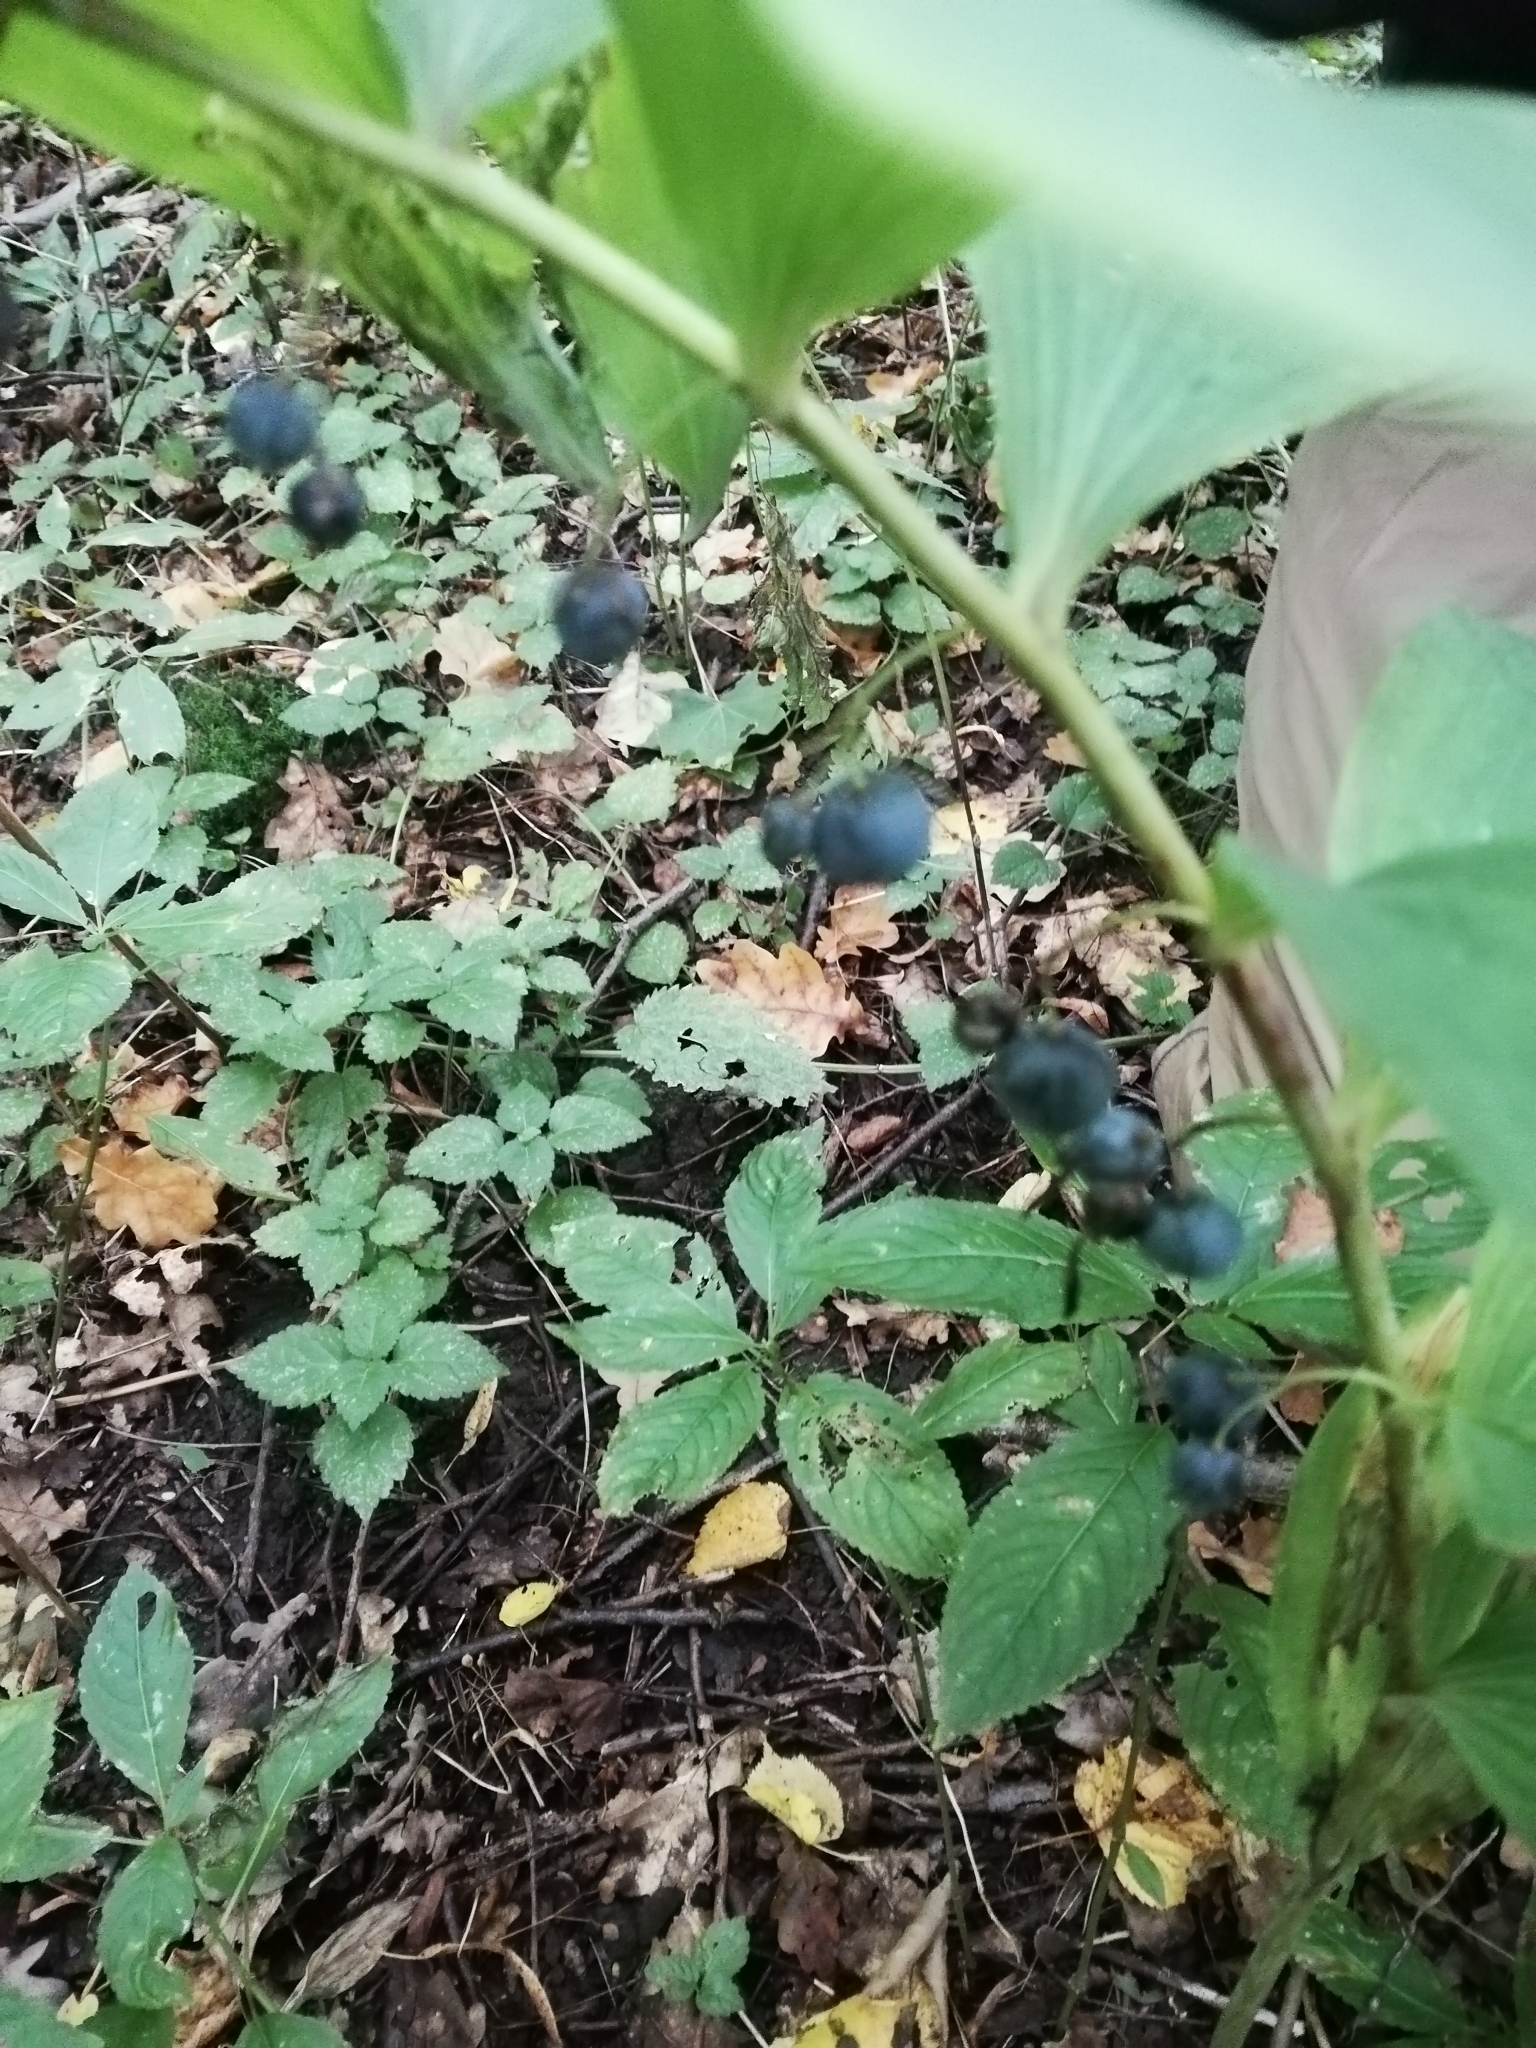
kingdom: Plantae
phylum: Tracheophyta
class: Liliopsida
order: Asparagales
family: Asparagaceae
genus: Polygonatum
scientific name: Polygonatum multiflorum
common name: Solomon's-seal
